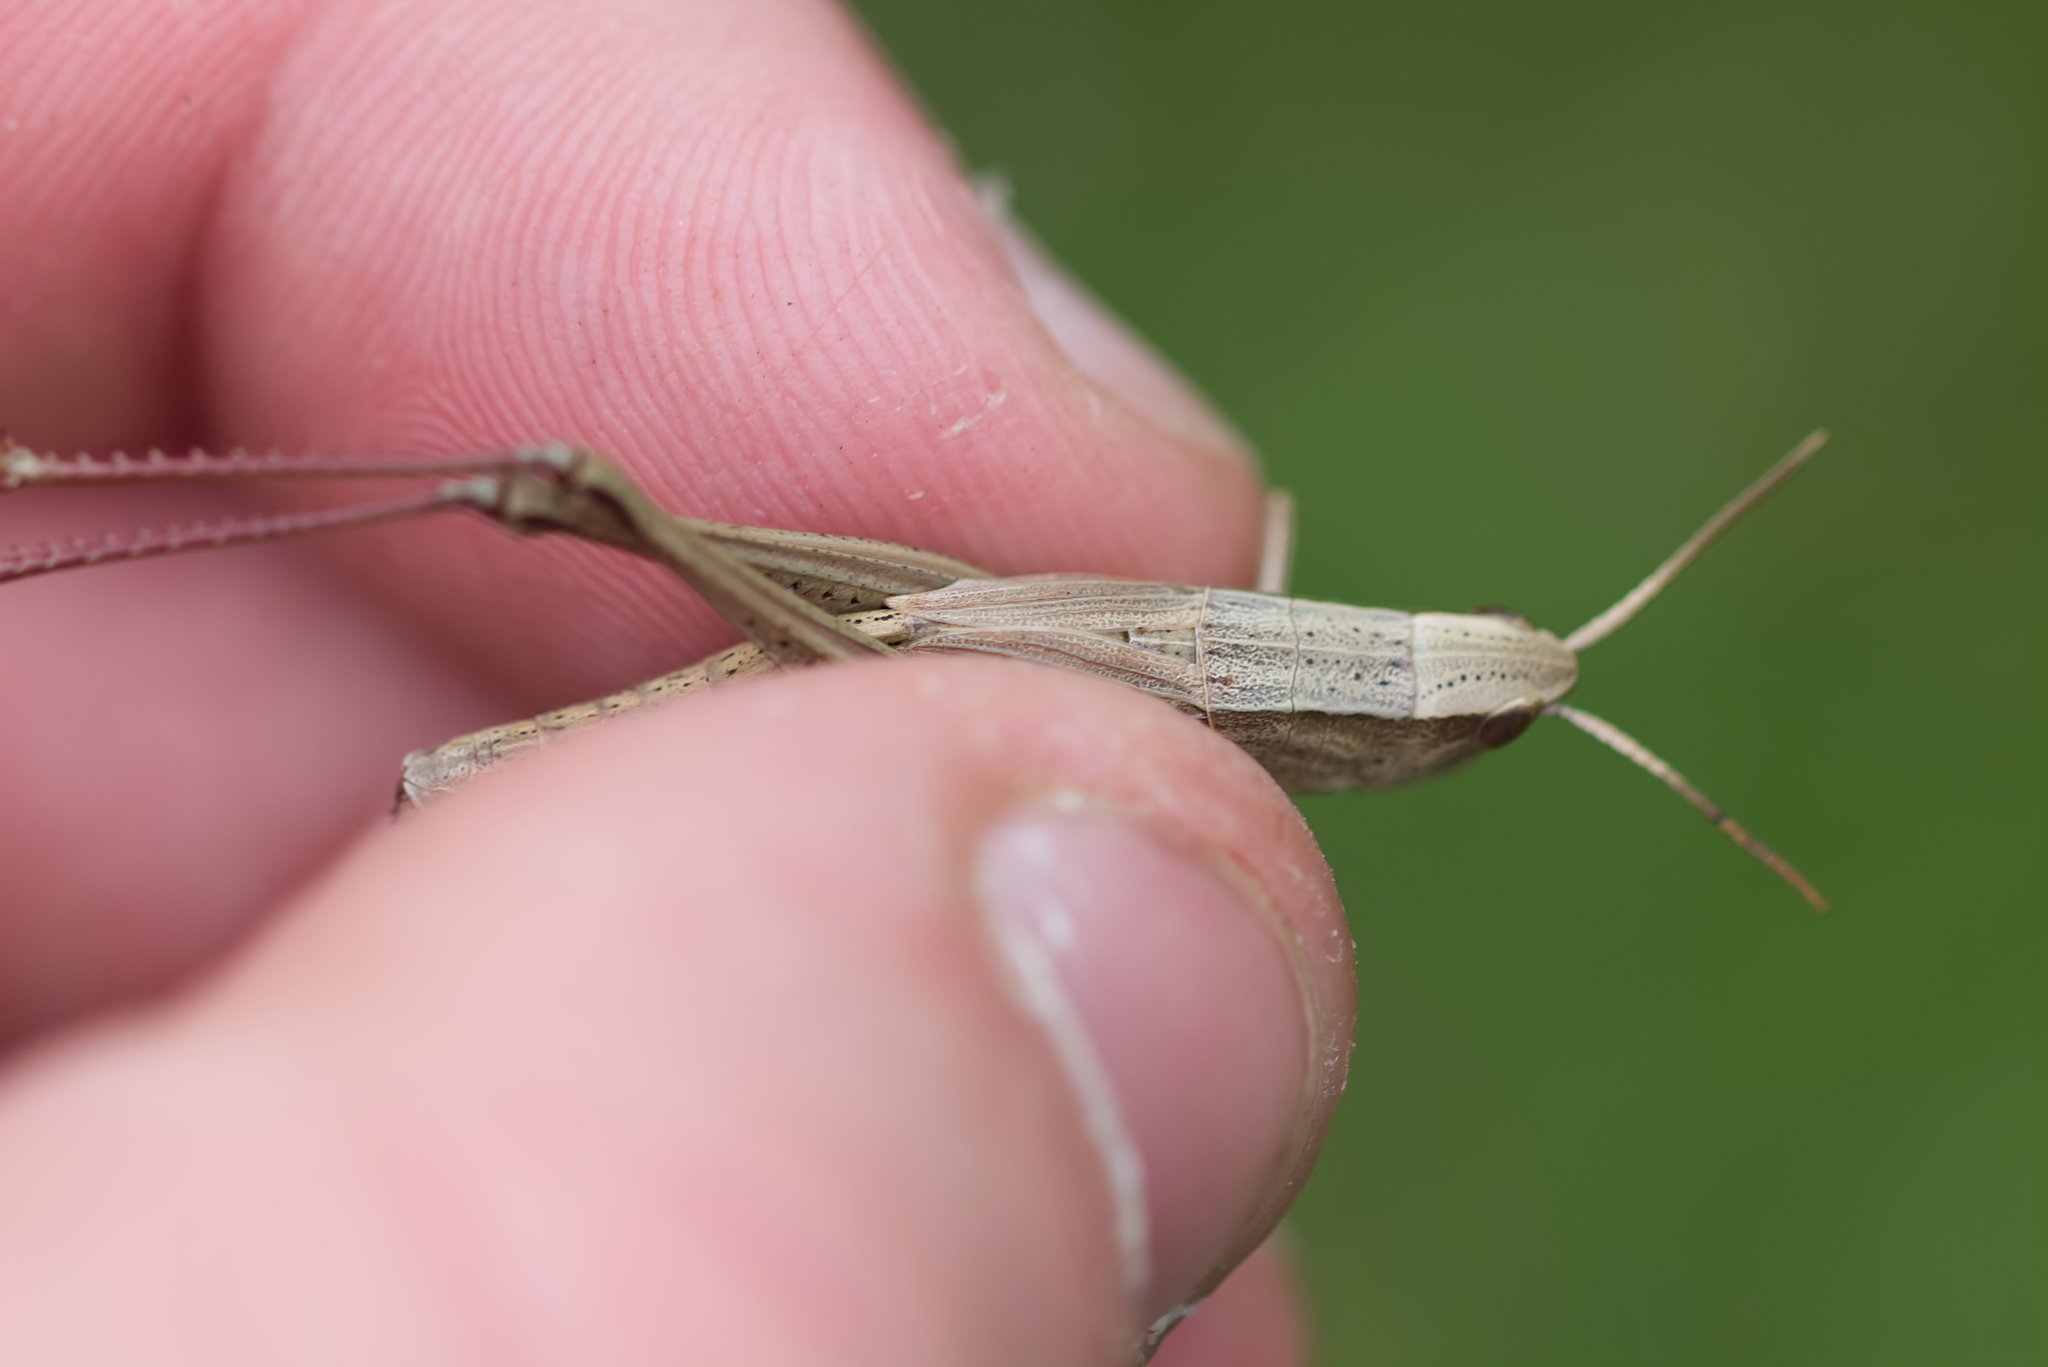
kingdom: Animalia
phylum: Arthropoda
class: Insecta
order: Orthoptera
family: Acrididae
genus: Chrysochraon
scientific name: Chrysochraon dispar
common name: Large gold grasshopper
